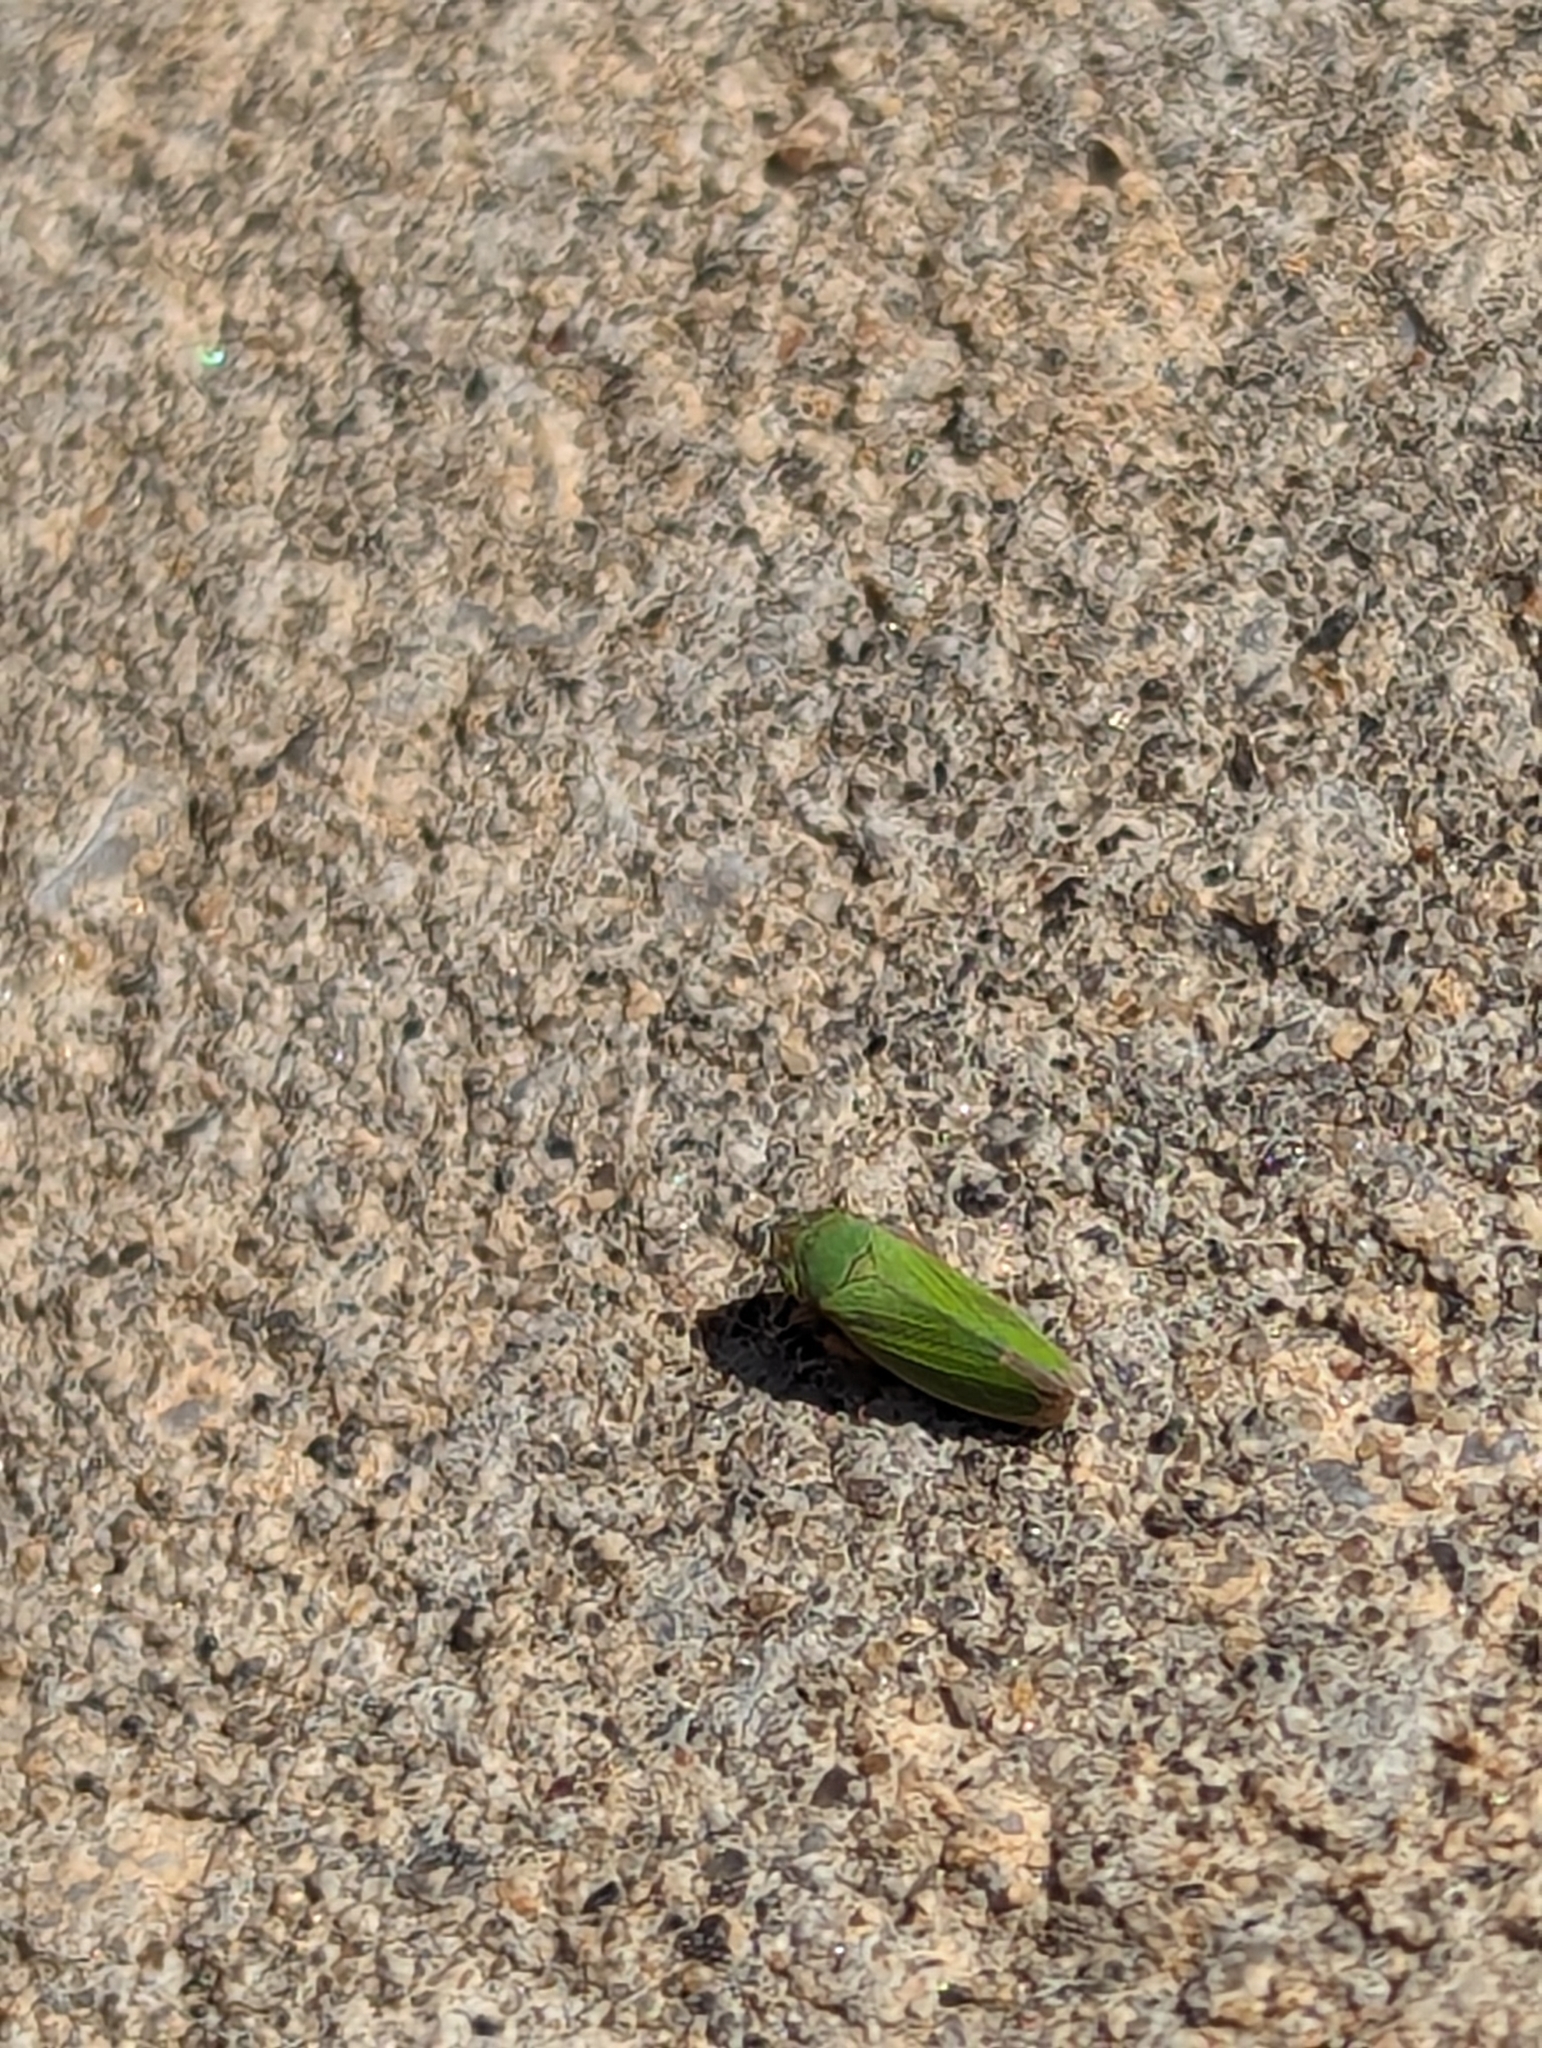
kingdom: Animalia
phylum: Arthropoda
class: Insecta
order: Hemiptera
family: Cicadellidae
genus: Helochara
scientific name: Helochara communis
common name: Bog leafhopper
